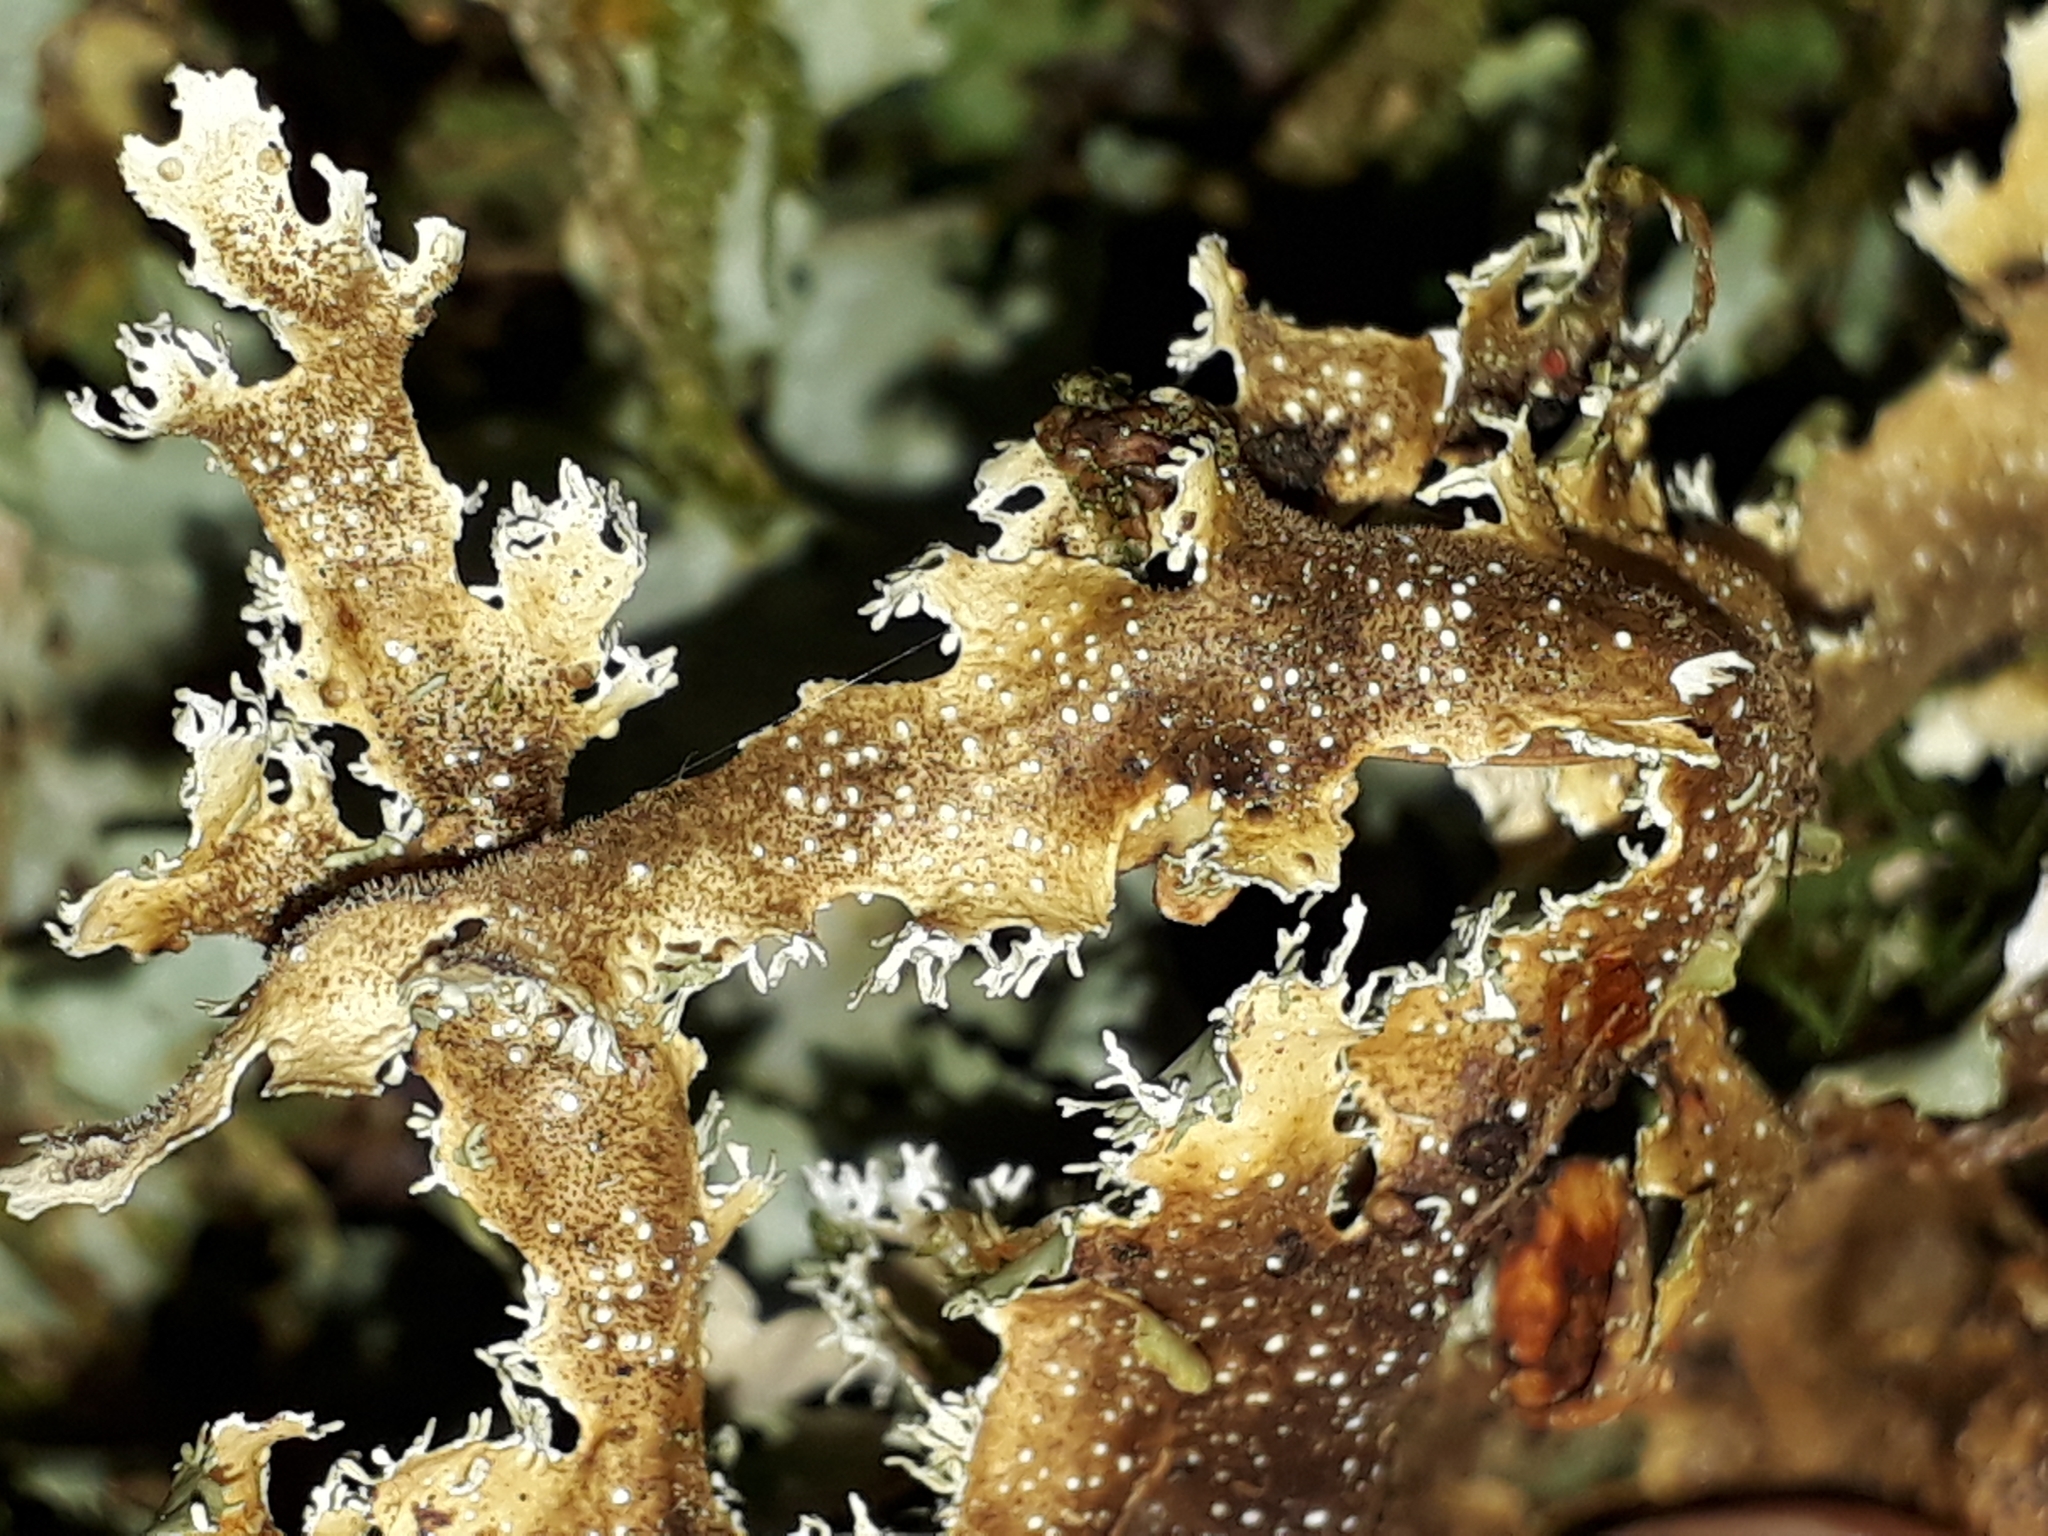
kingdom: Fungi
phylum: Ascomycota
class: Lecanoromycetes
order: Peltigerales
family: Lobariaceae
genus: Pseudocyphellaria
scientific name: Pseudocyphellaria glabra
